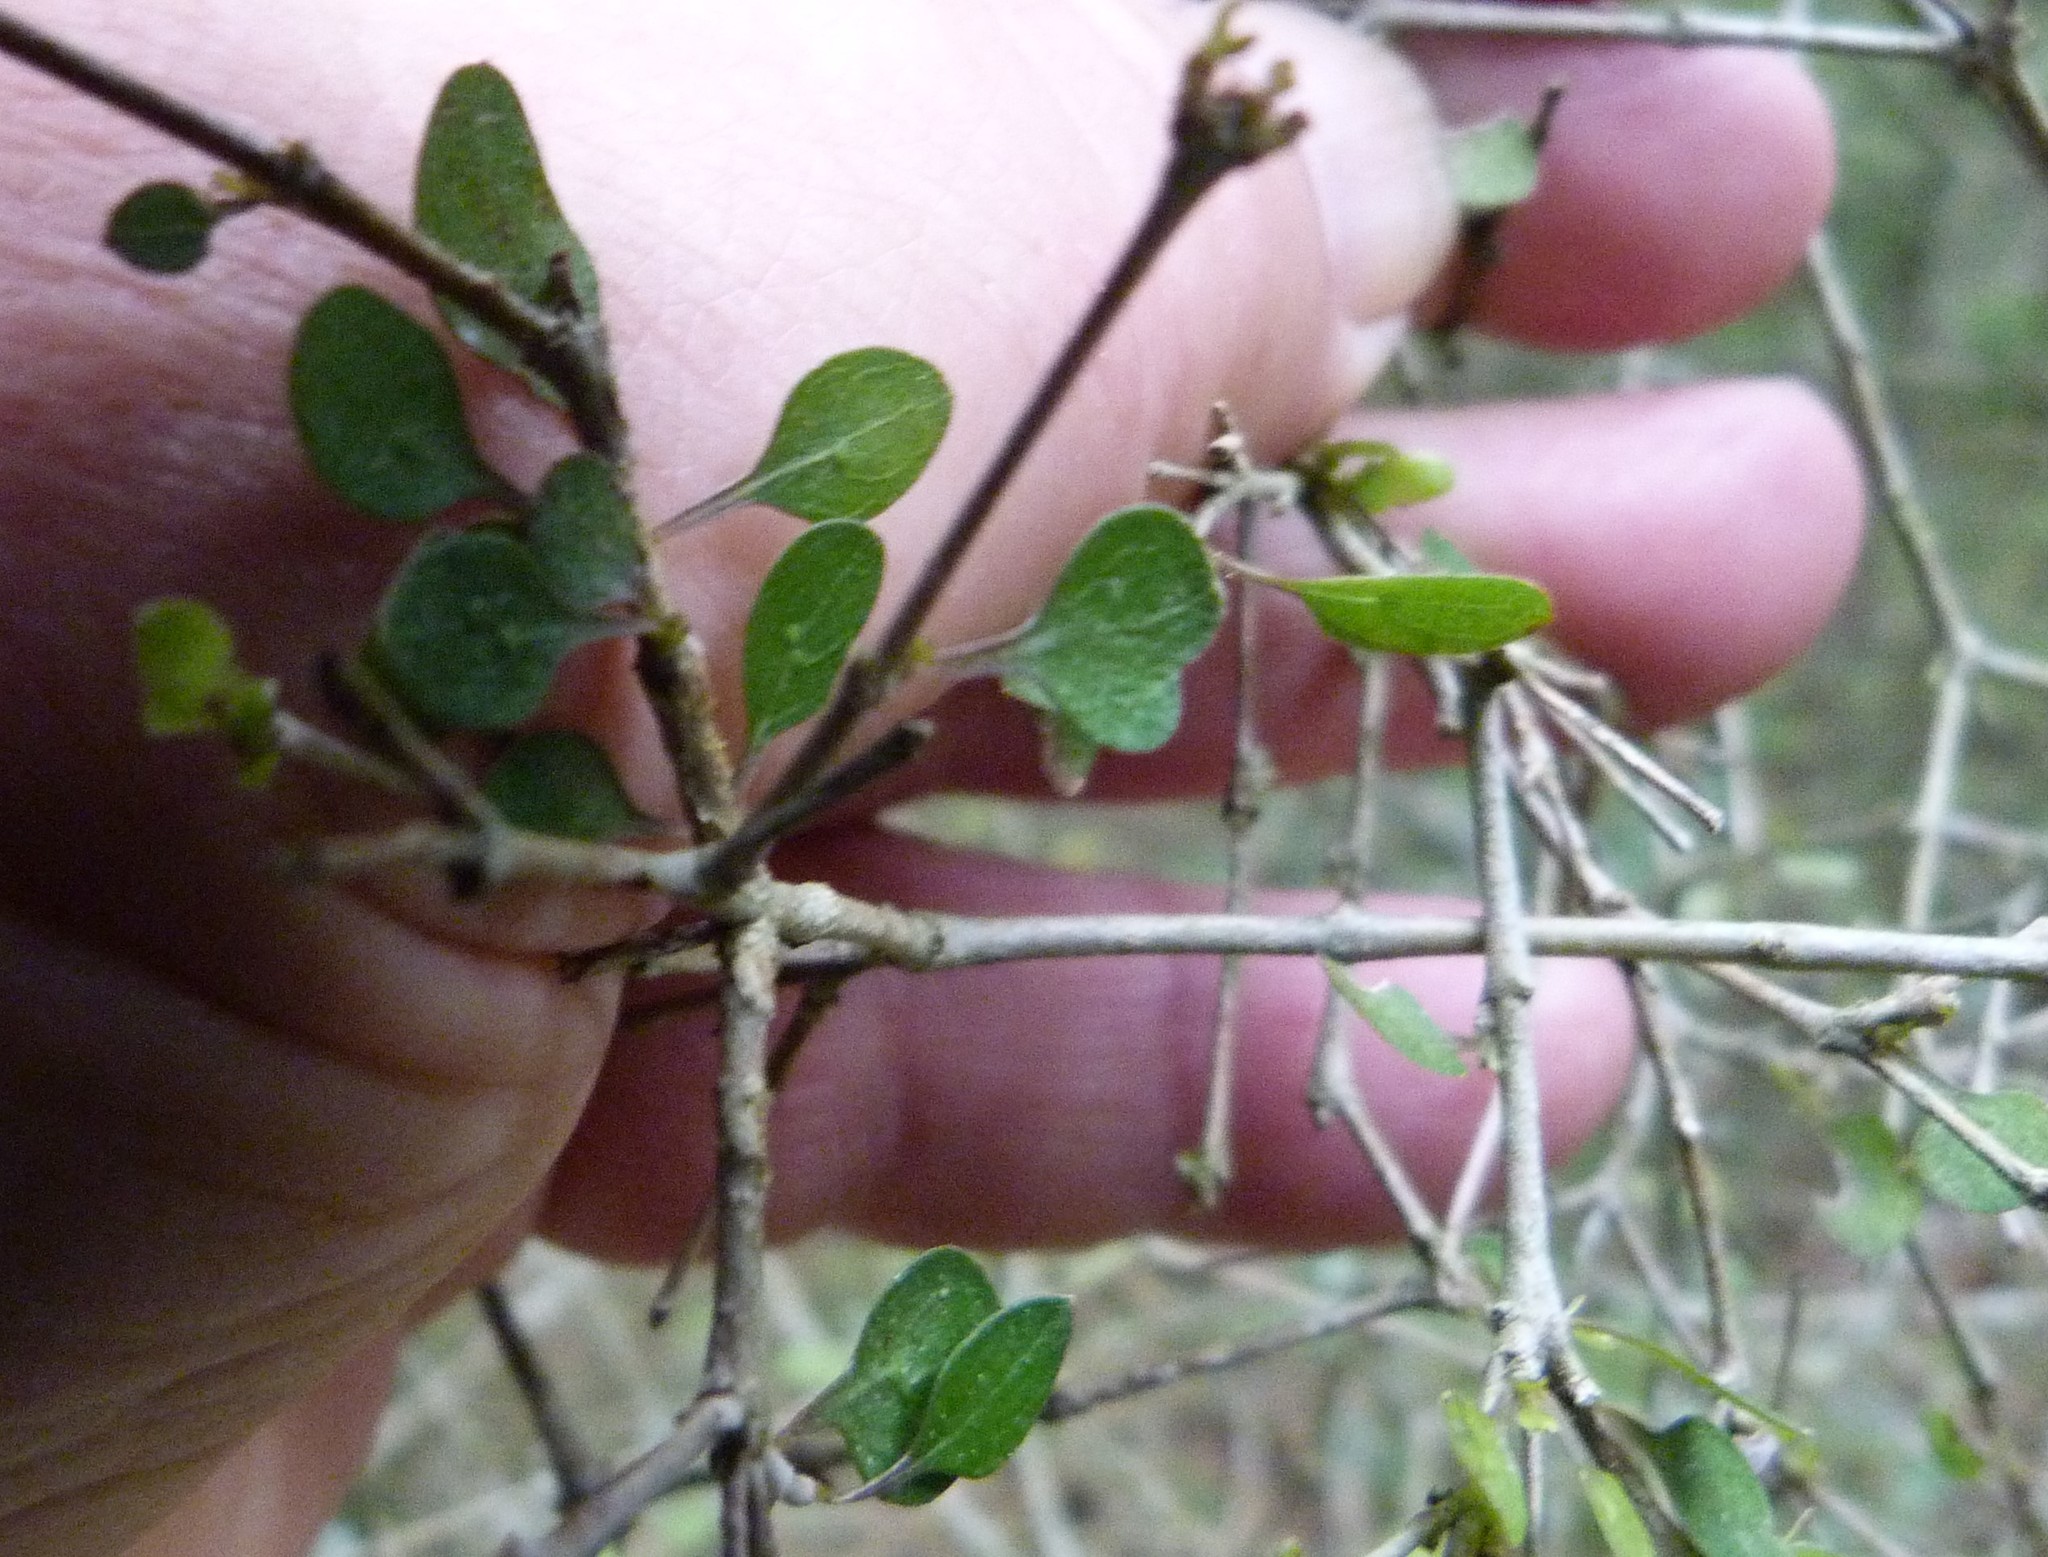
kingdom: Plantae
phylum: Tracheophyta
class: Magnoliopsida
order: Gentianales
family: Rubiaceae
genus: Coprosma
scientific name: Coprosma rubra
